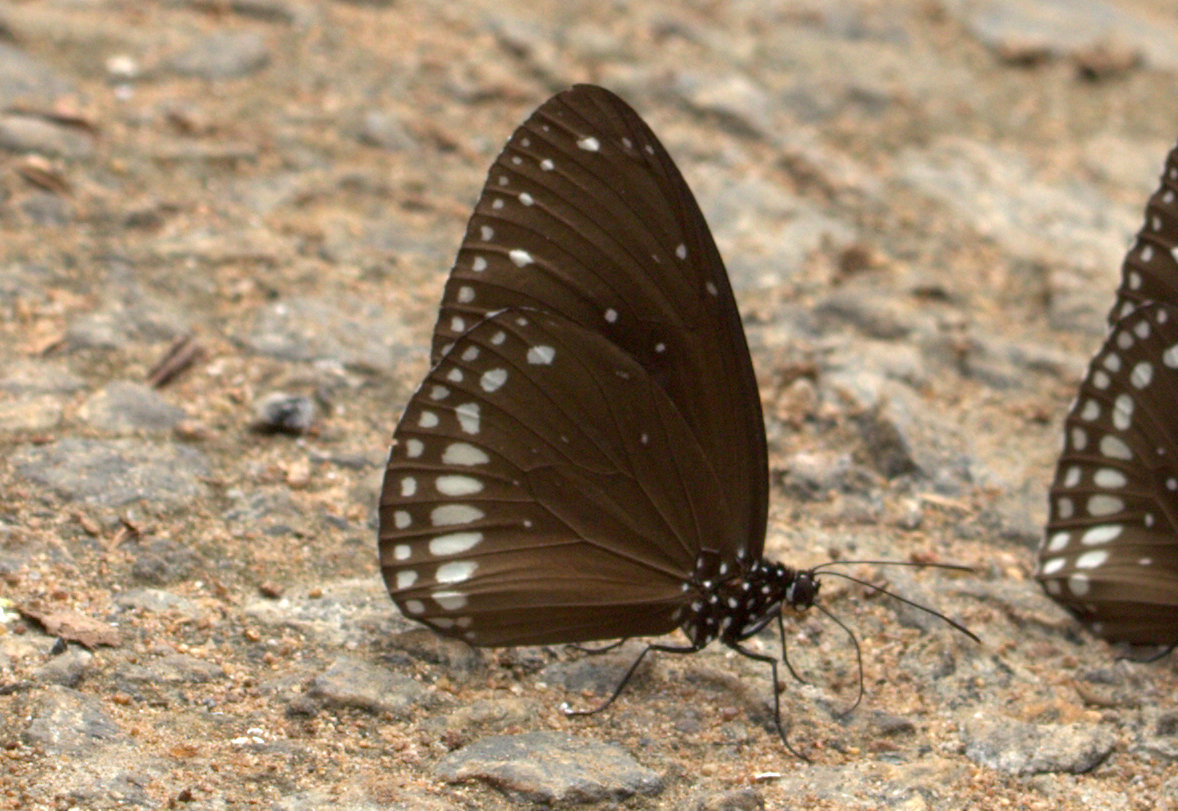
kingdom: Animalia
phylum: Arthropoda
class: Insecta
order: Lepidoptera
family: Nymphalidae
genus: Euploea
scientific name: Euploea sylvester
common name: Double-branded crow butterfly
